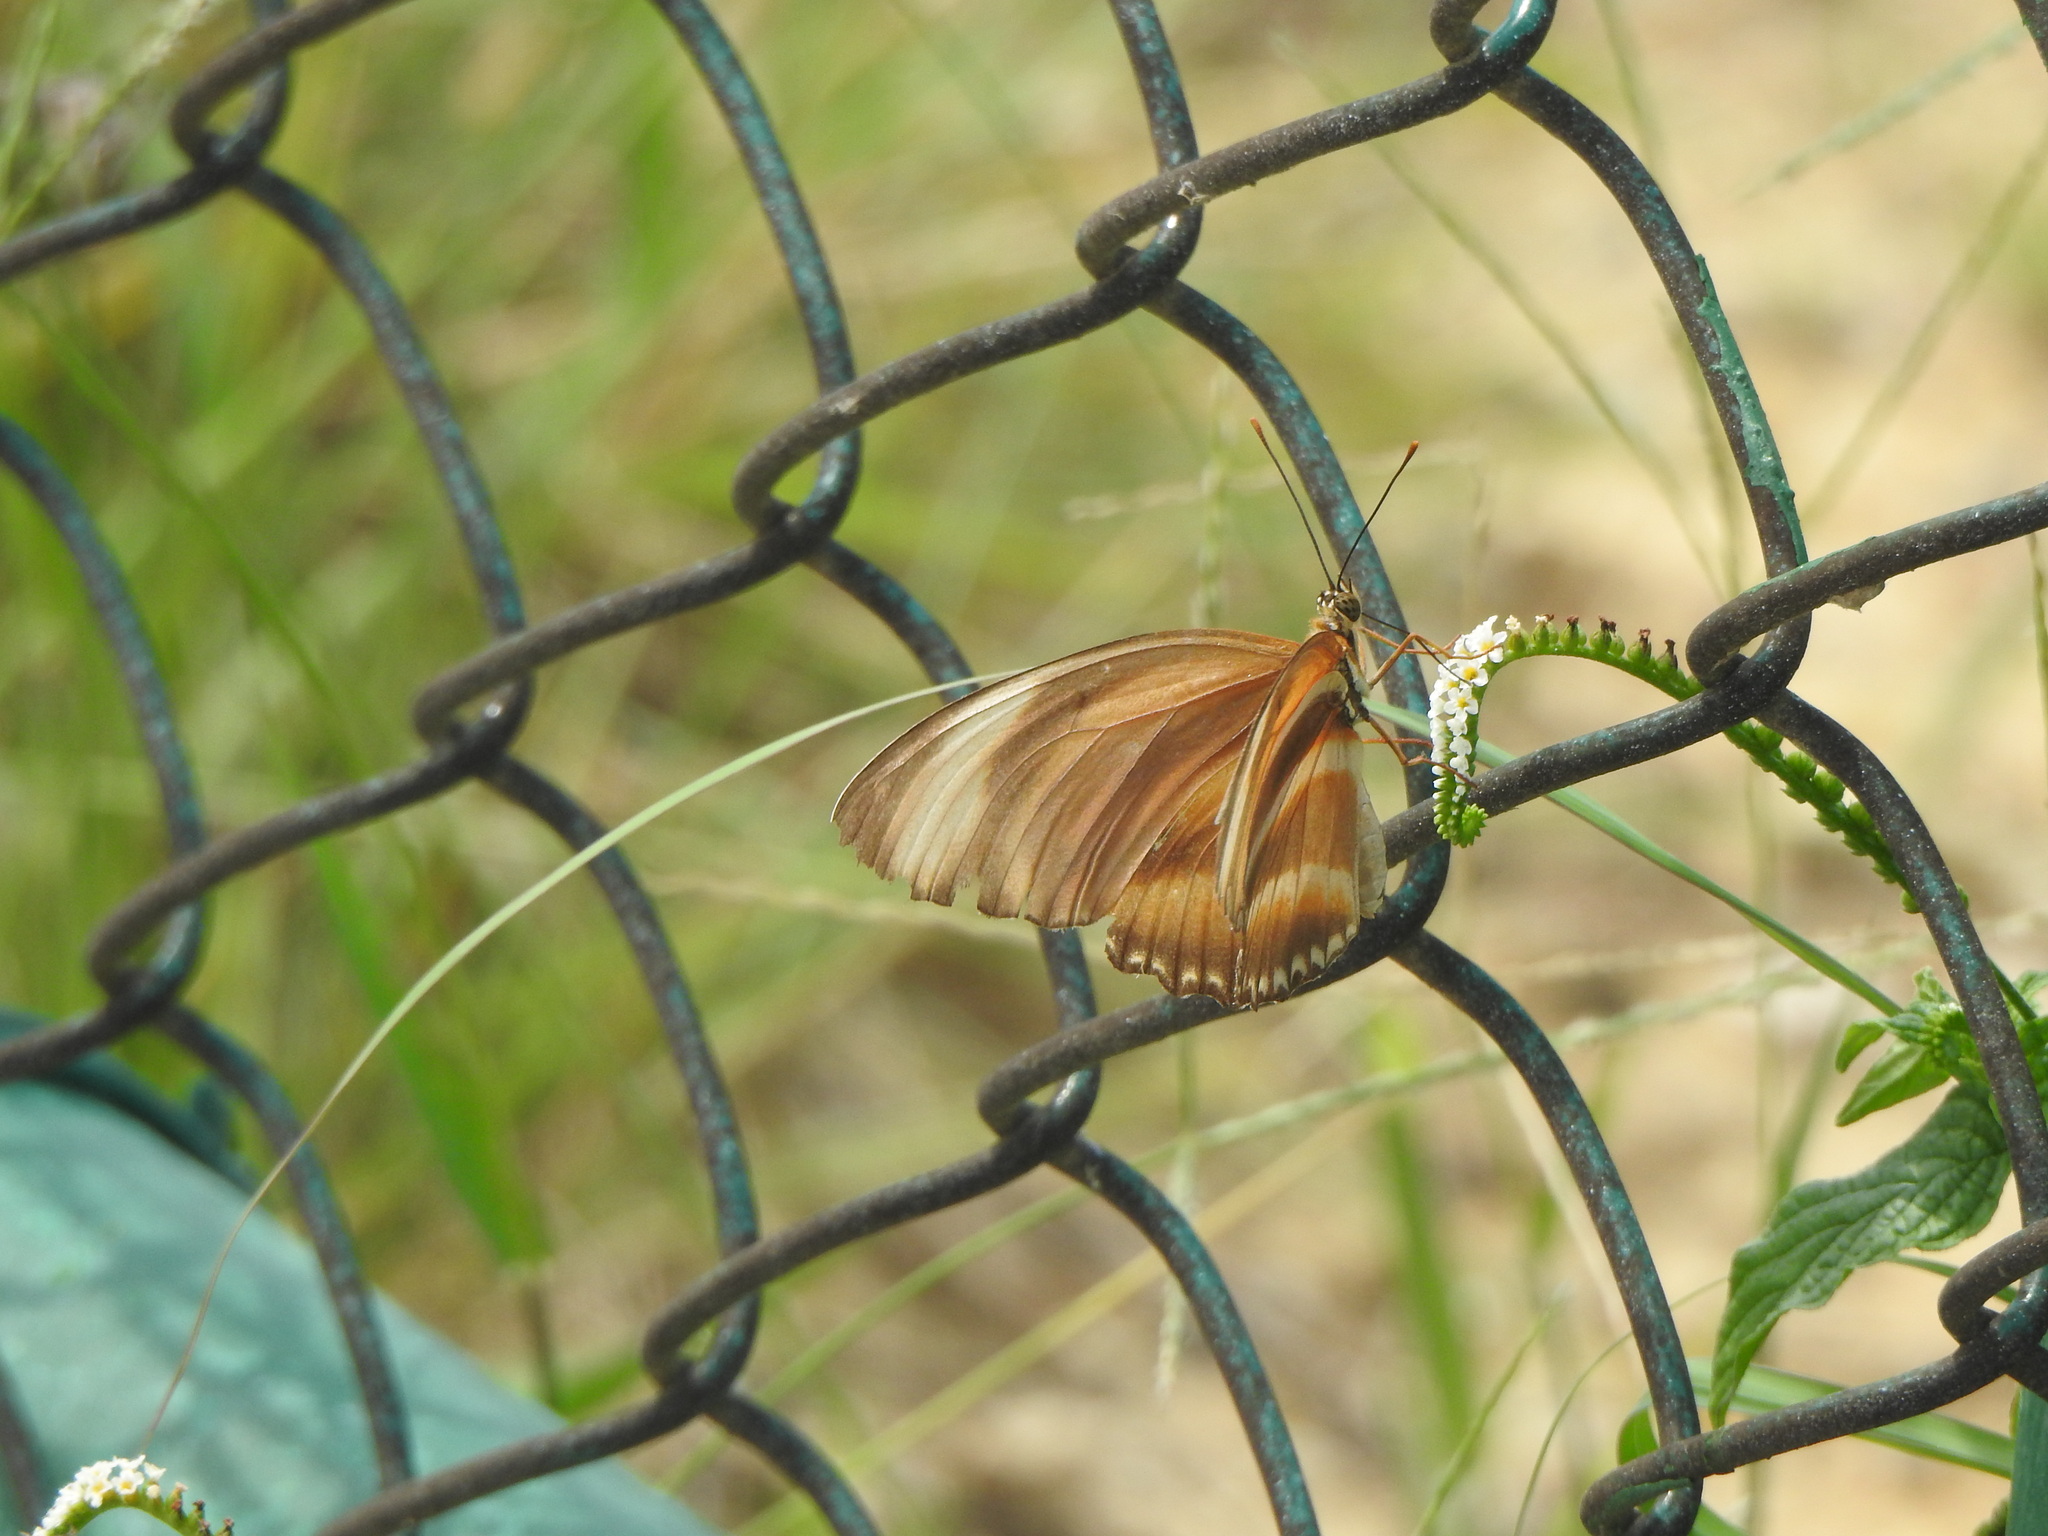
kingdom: Animalia
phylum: Arthropoda
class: Insecta
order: Lepidoptera
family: Nymphalidae
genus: Dryadula
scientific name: Dryadula phaetusa
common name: Banded orange heliconian
